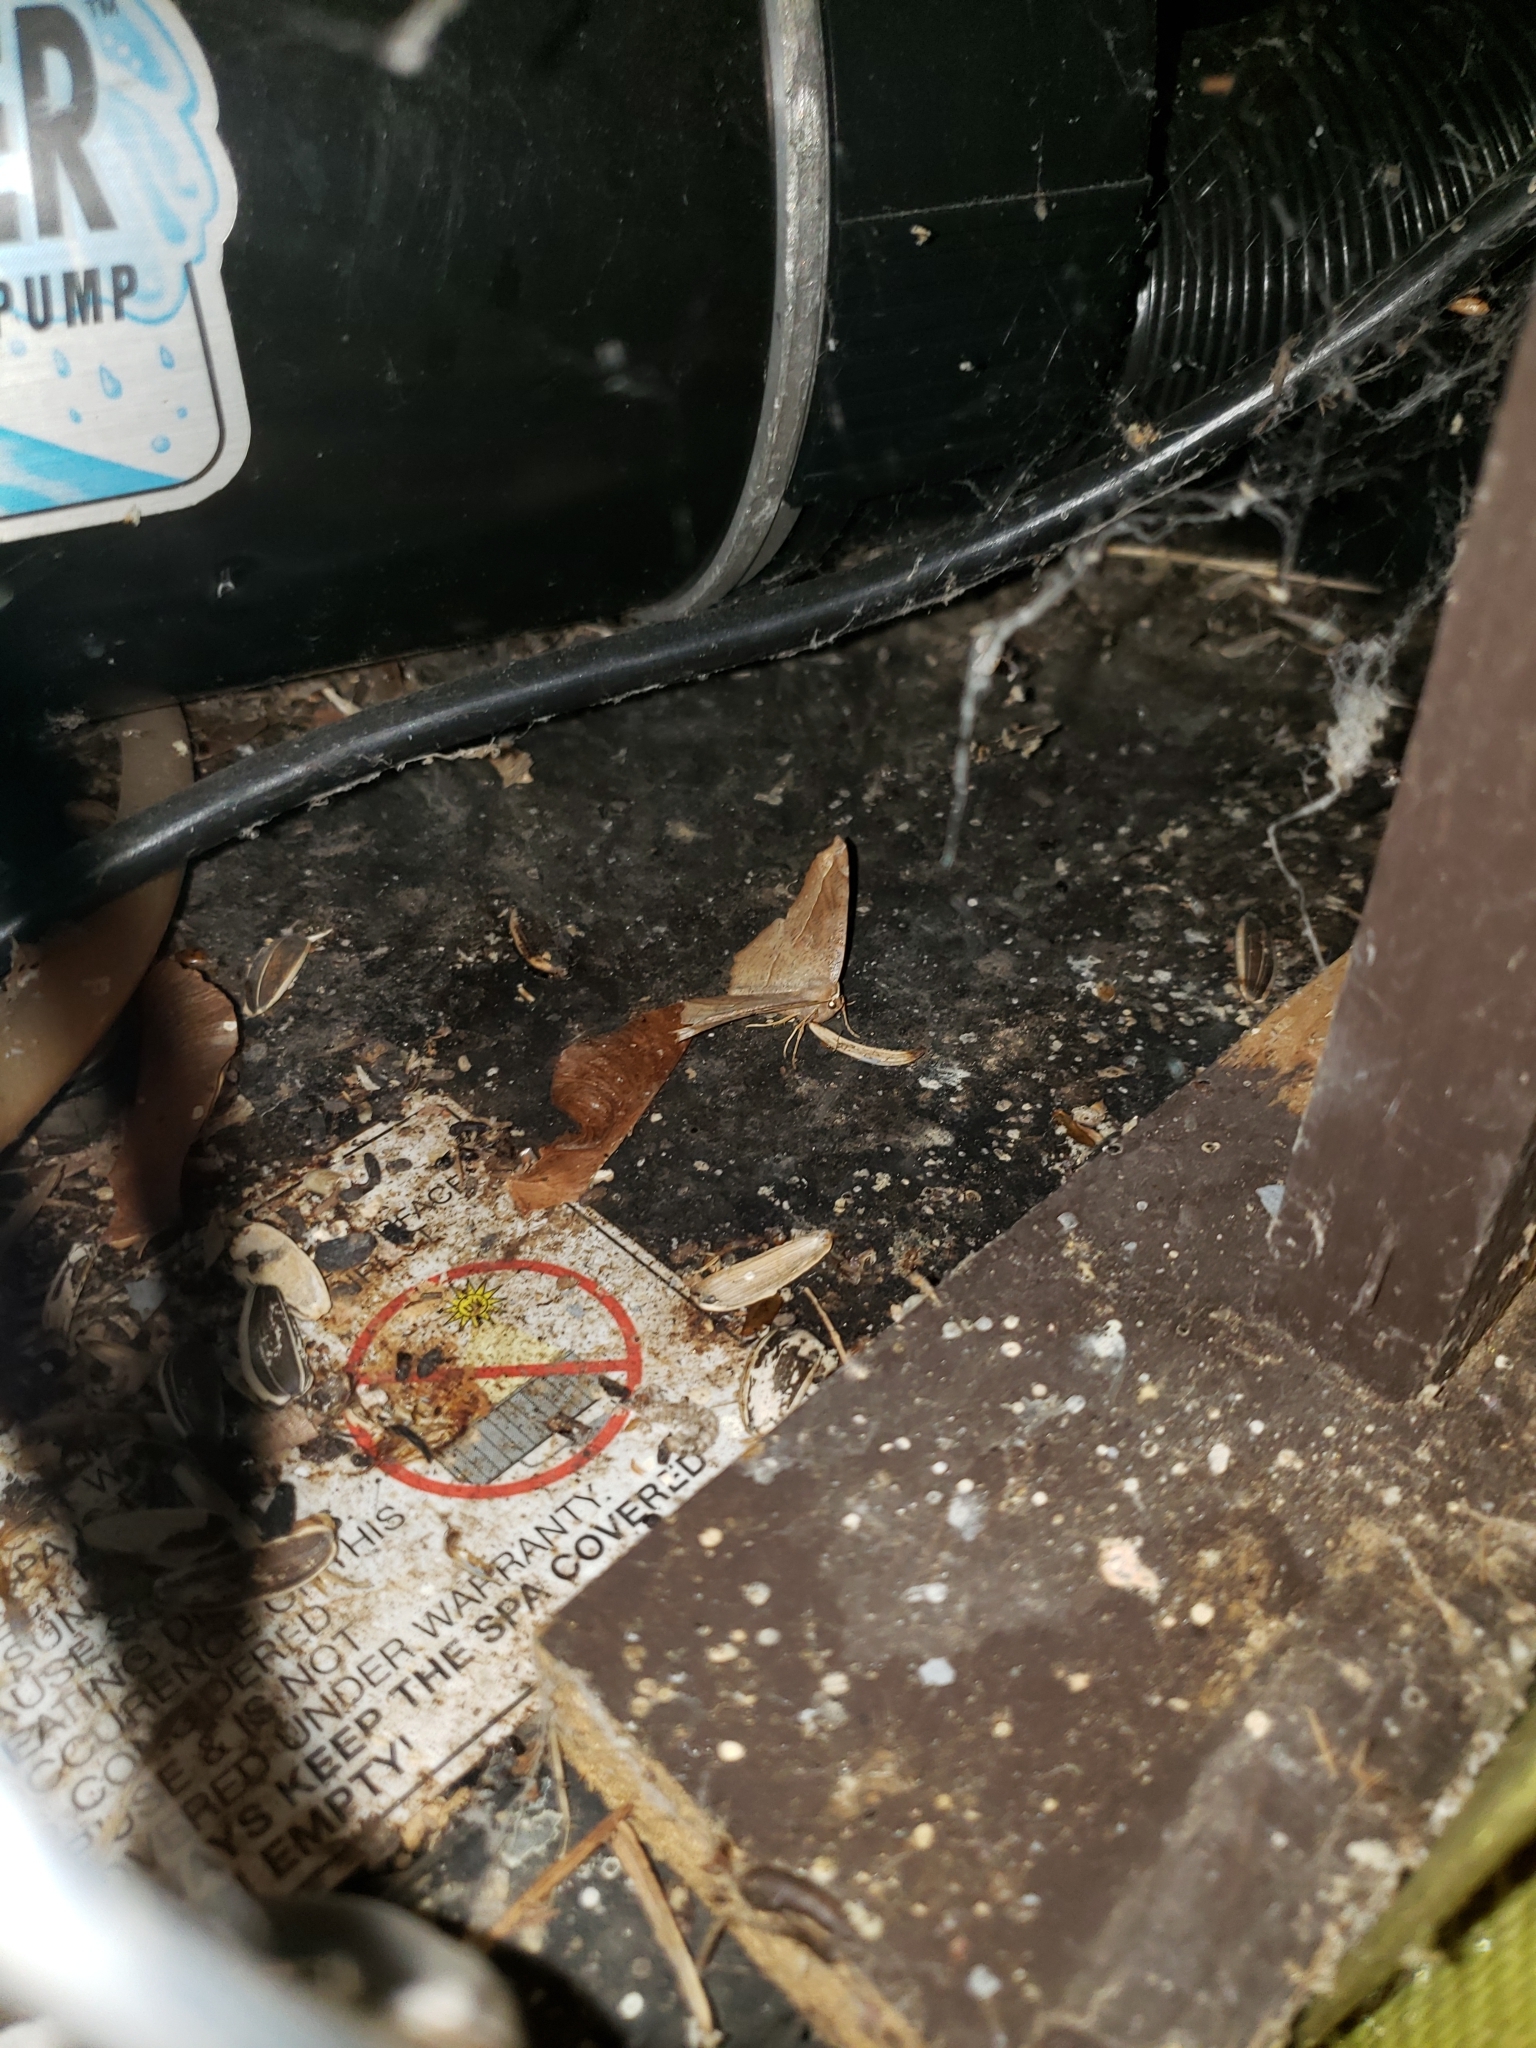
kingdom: Animalia
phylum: Arthropoda
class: Insecta
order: Lepidoptera
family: Geometridae
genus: Eutrapela
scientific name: Eutrapela clemataria
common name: Curved-toothed geometer
